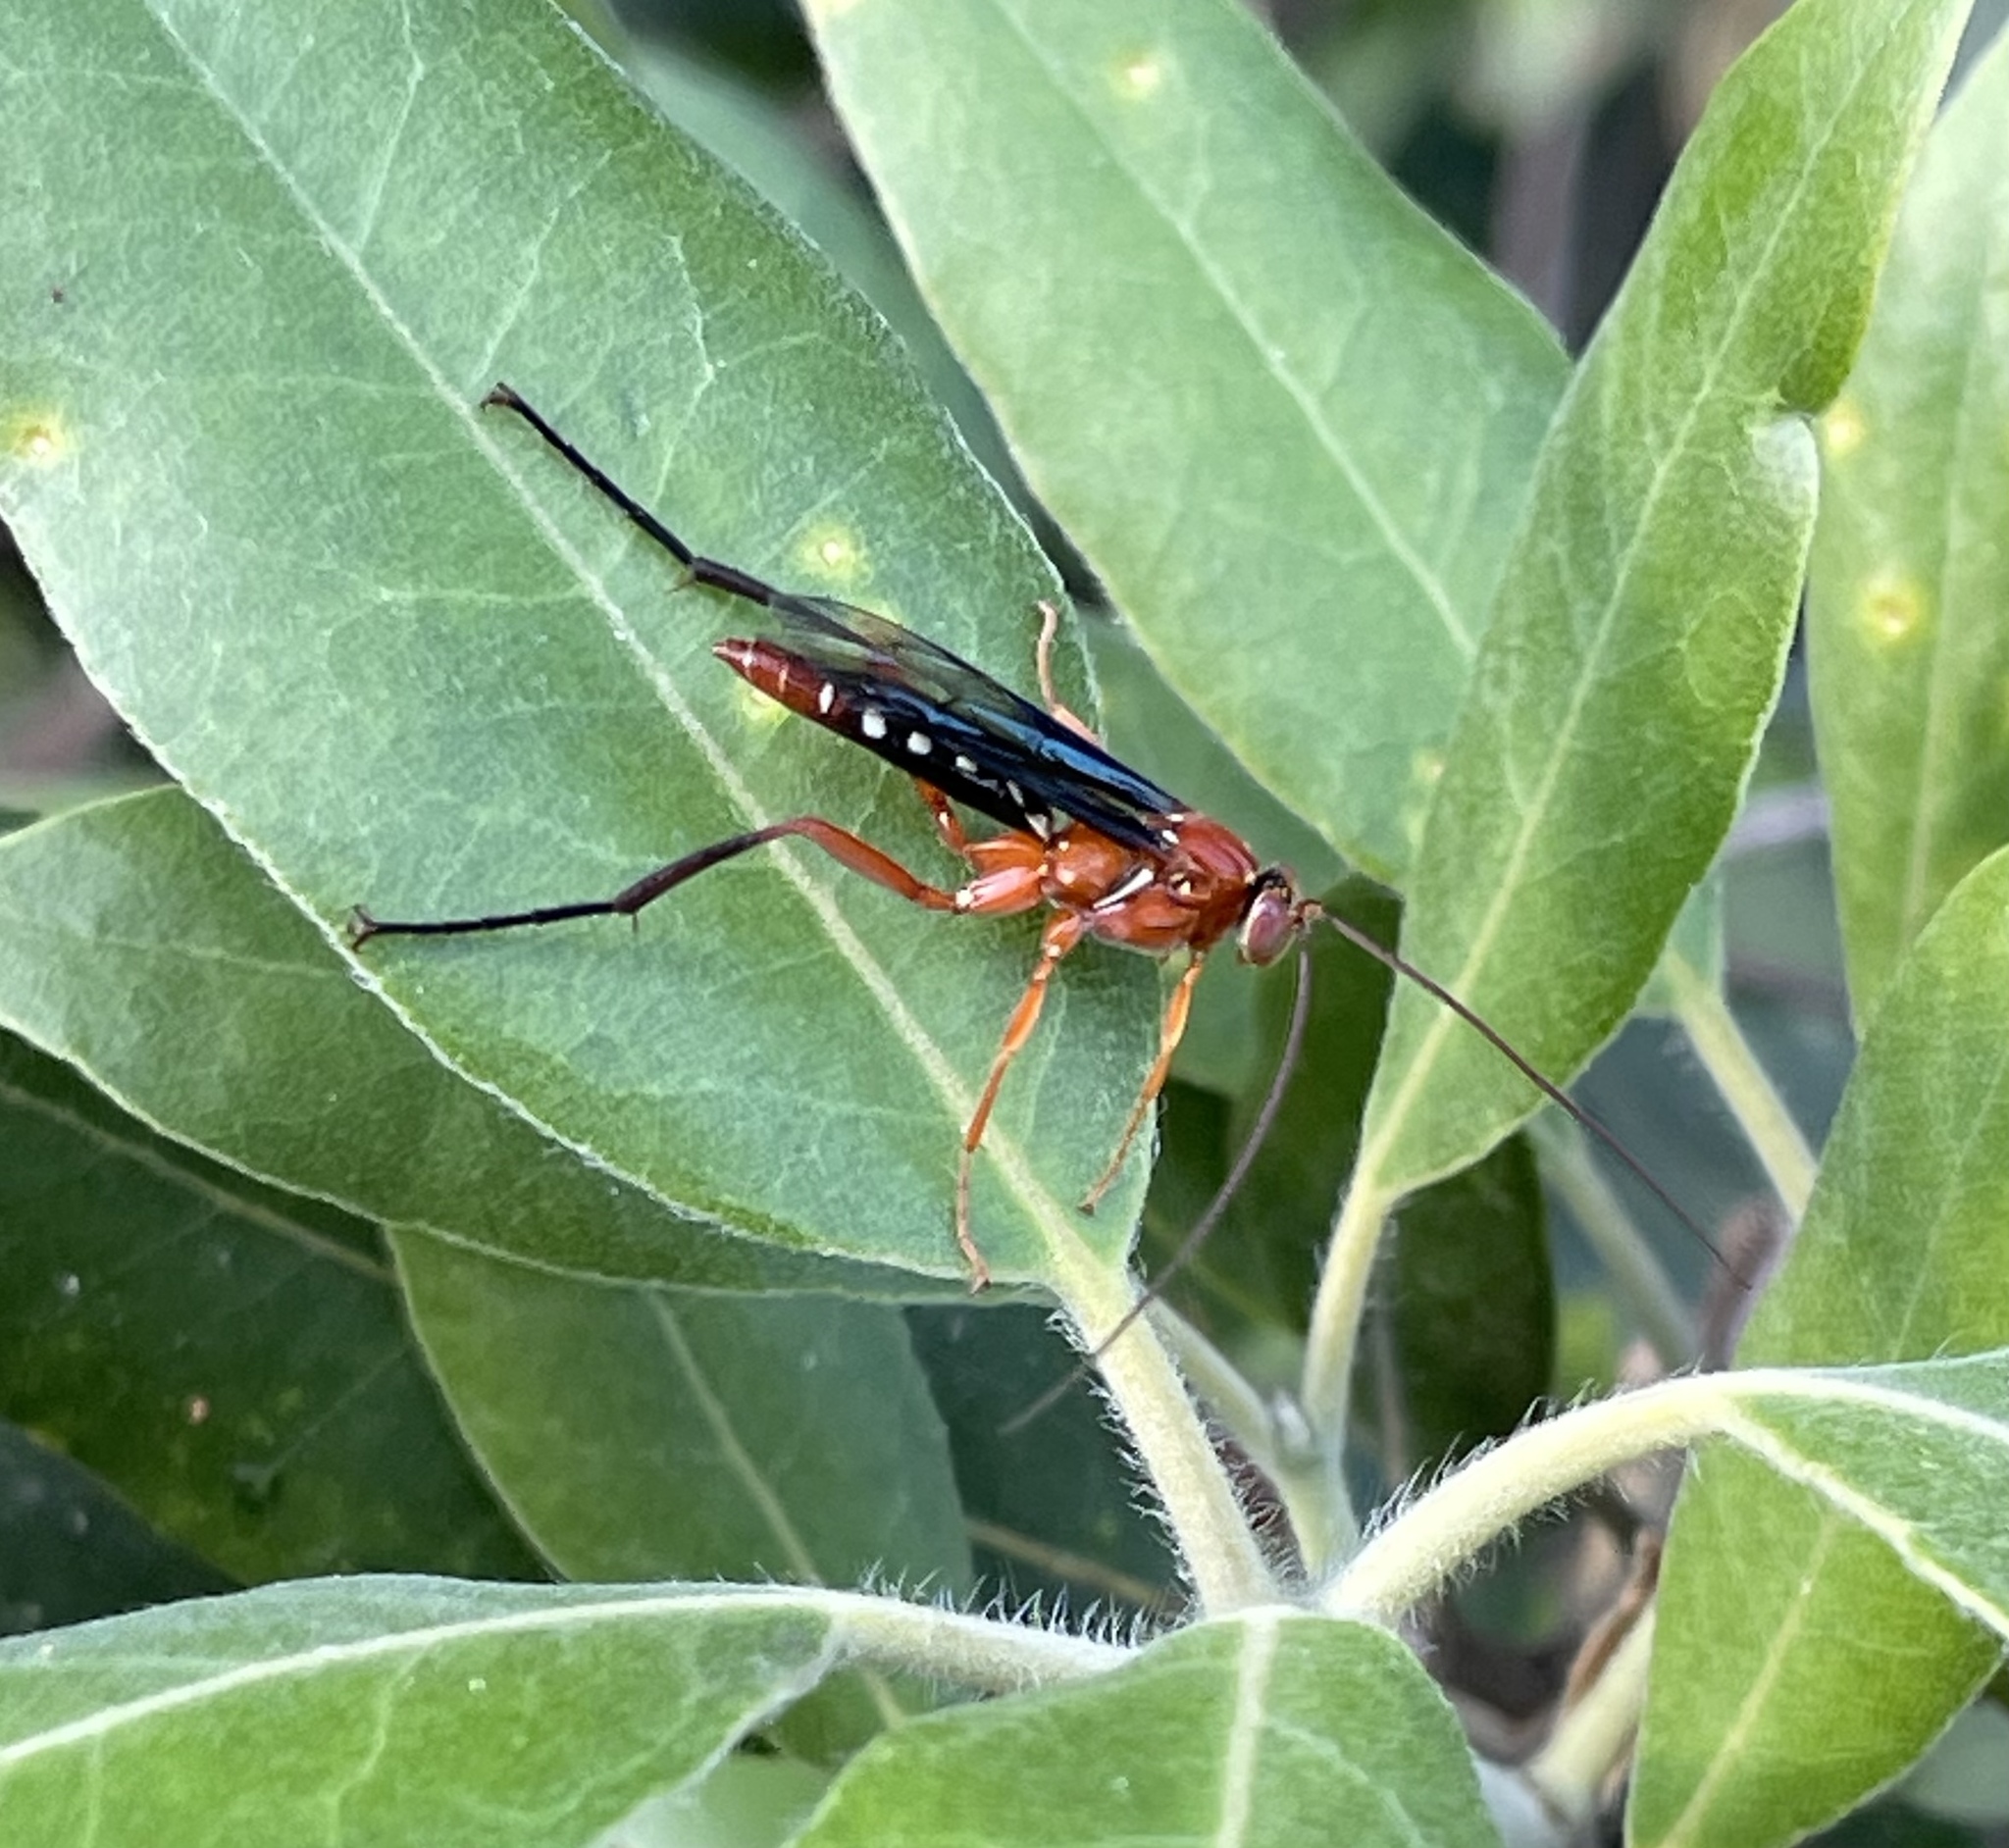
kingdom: Animalia
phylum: Arthropoda
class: Insecta
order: Hymenoptera
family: Ichneumonidae
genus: Lissopimpla
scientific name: Lissopimpla excelsa
